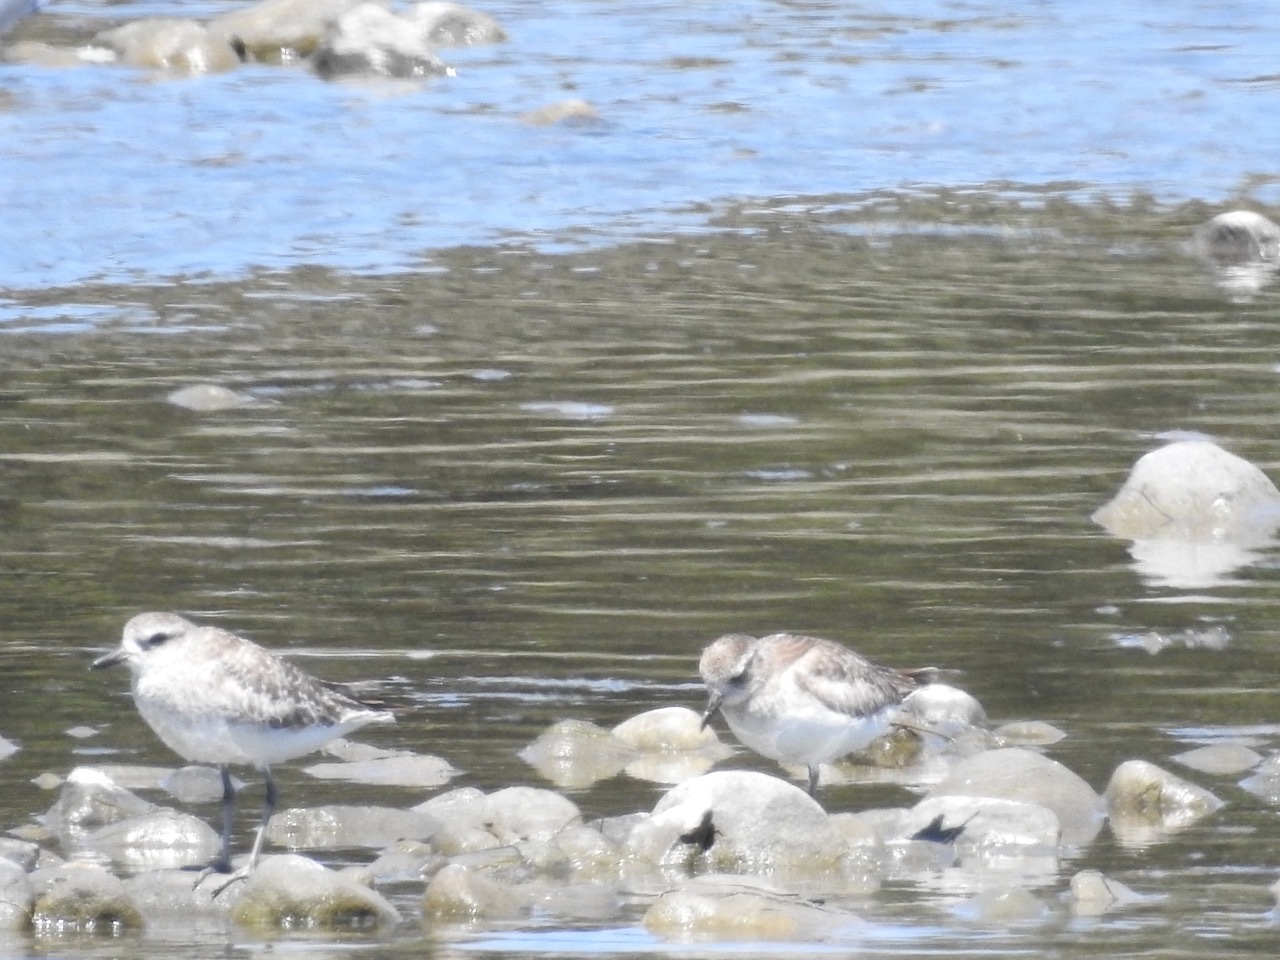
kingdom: Animalia
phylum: Chordata
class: Aves
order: Charadriiformes
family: Charadriidae
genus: Pluvialis
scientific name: Pluvialis squatarola
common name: Grey plover
